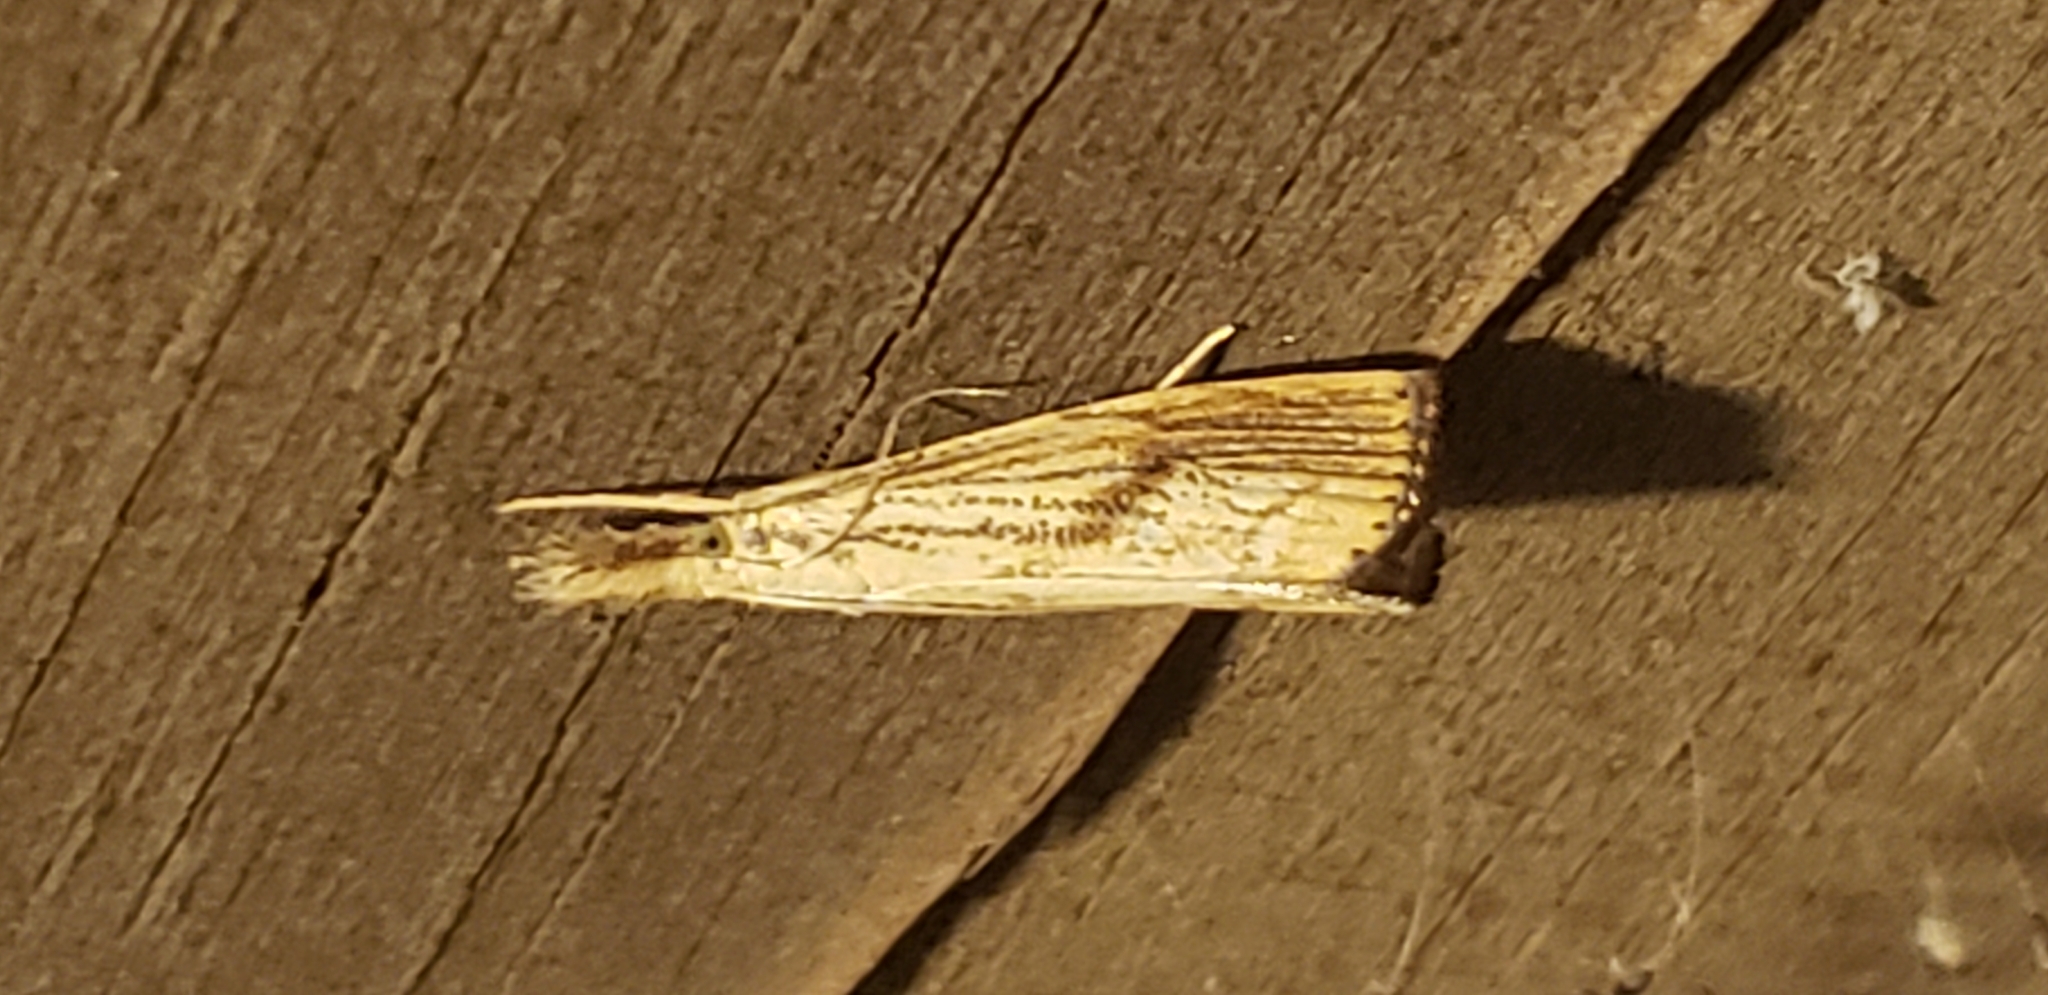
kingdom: Animalia
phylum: Arthropoda
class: Insecta
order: Lepidoptera
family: Crambidae
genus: Agriphila
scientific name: Agriphila ruricolellus
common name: Lesser vagabond sod webworm
